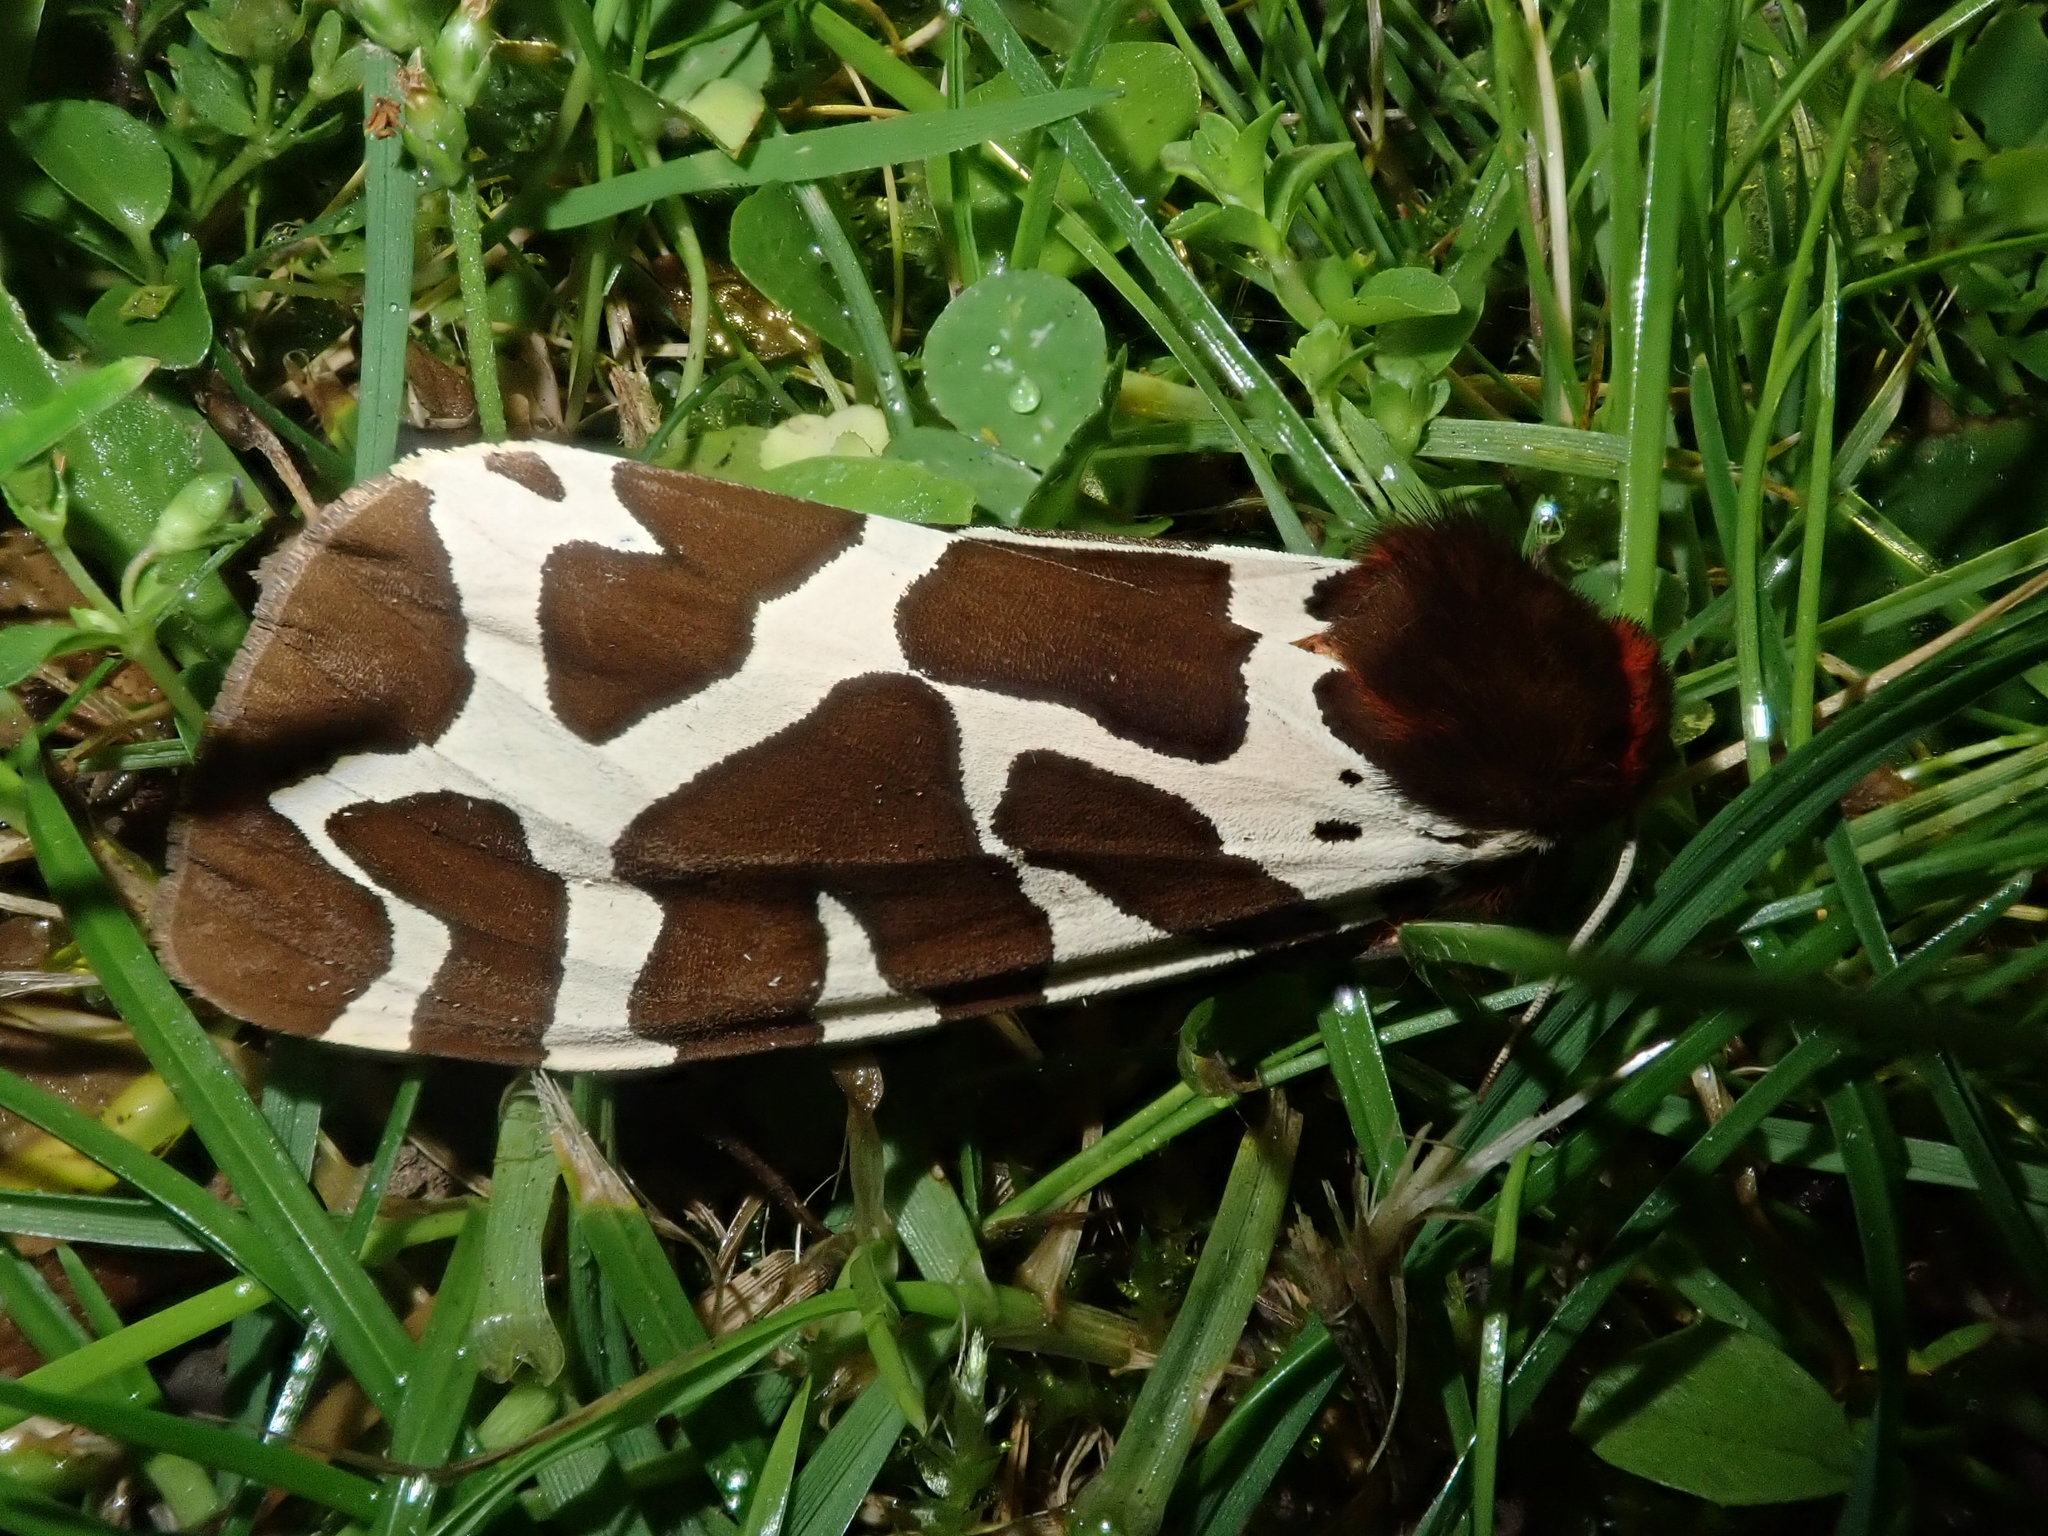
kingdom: Animalia
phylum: Arthropoda
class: Insecta
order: Lepidoptera
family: Erebidae
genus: Arctia
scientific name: Arctia caja
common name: Garden tiger
